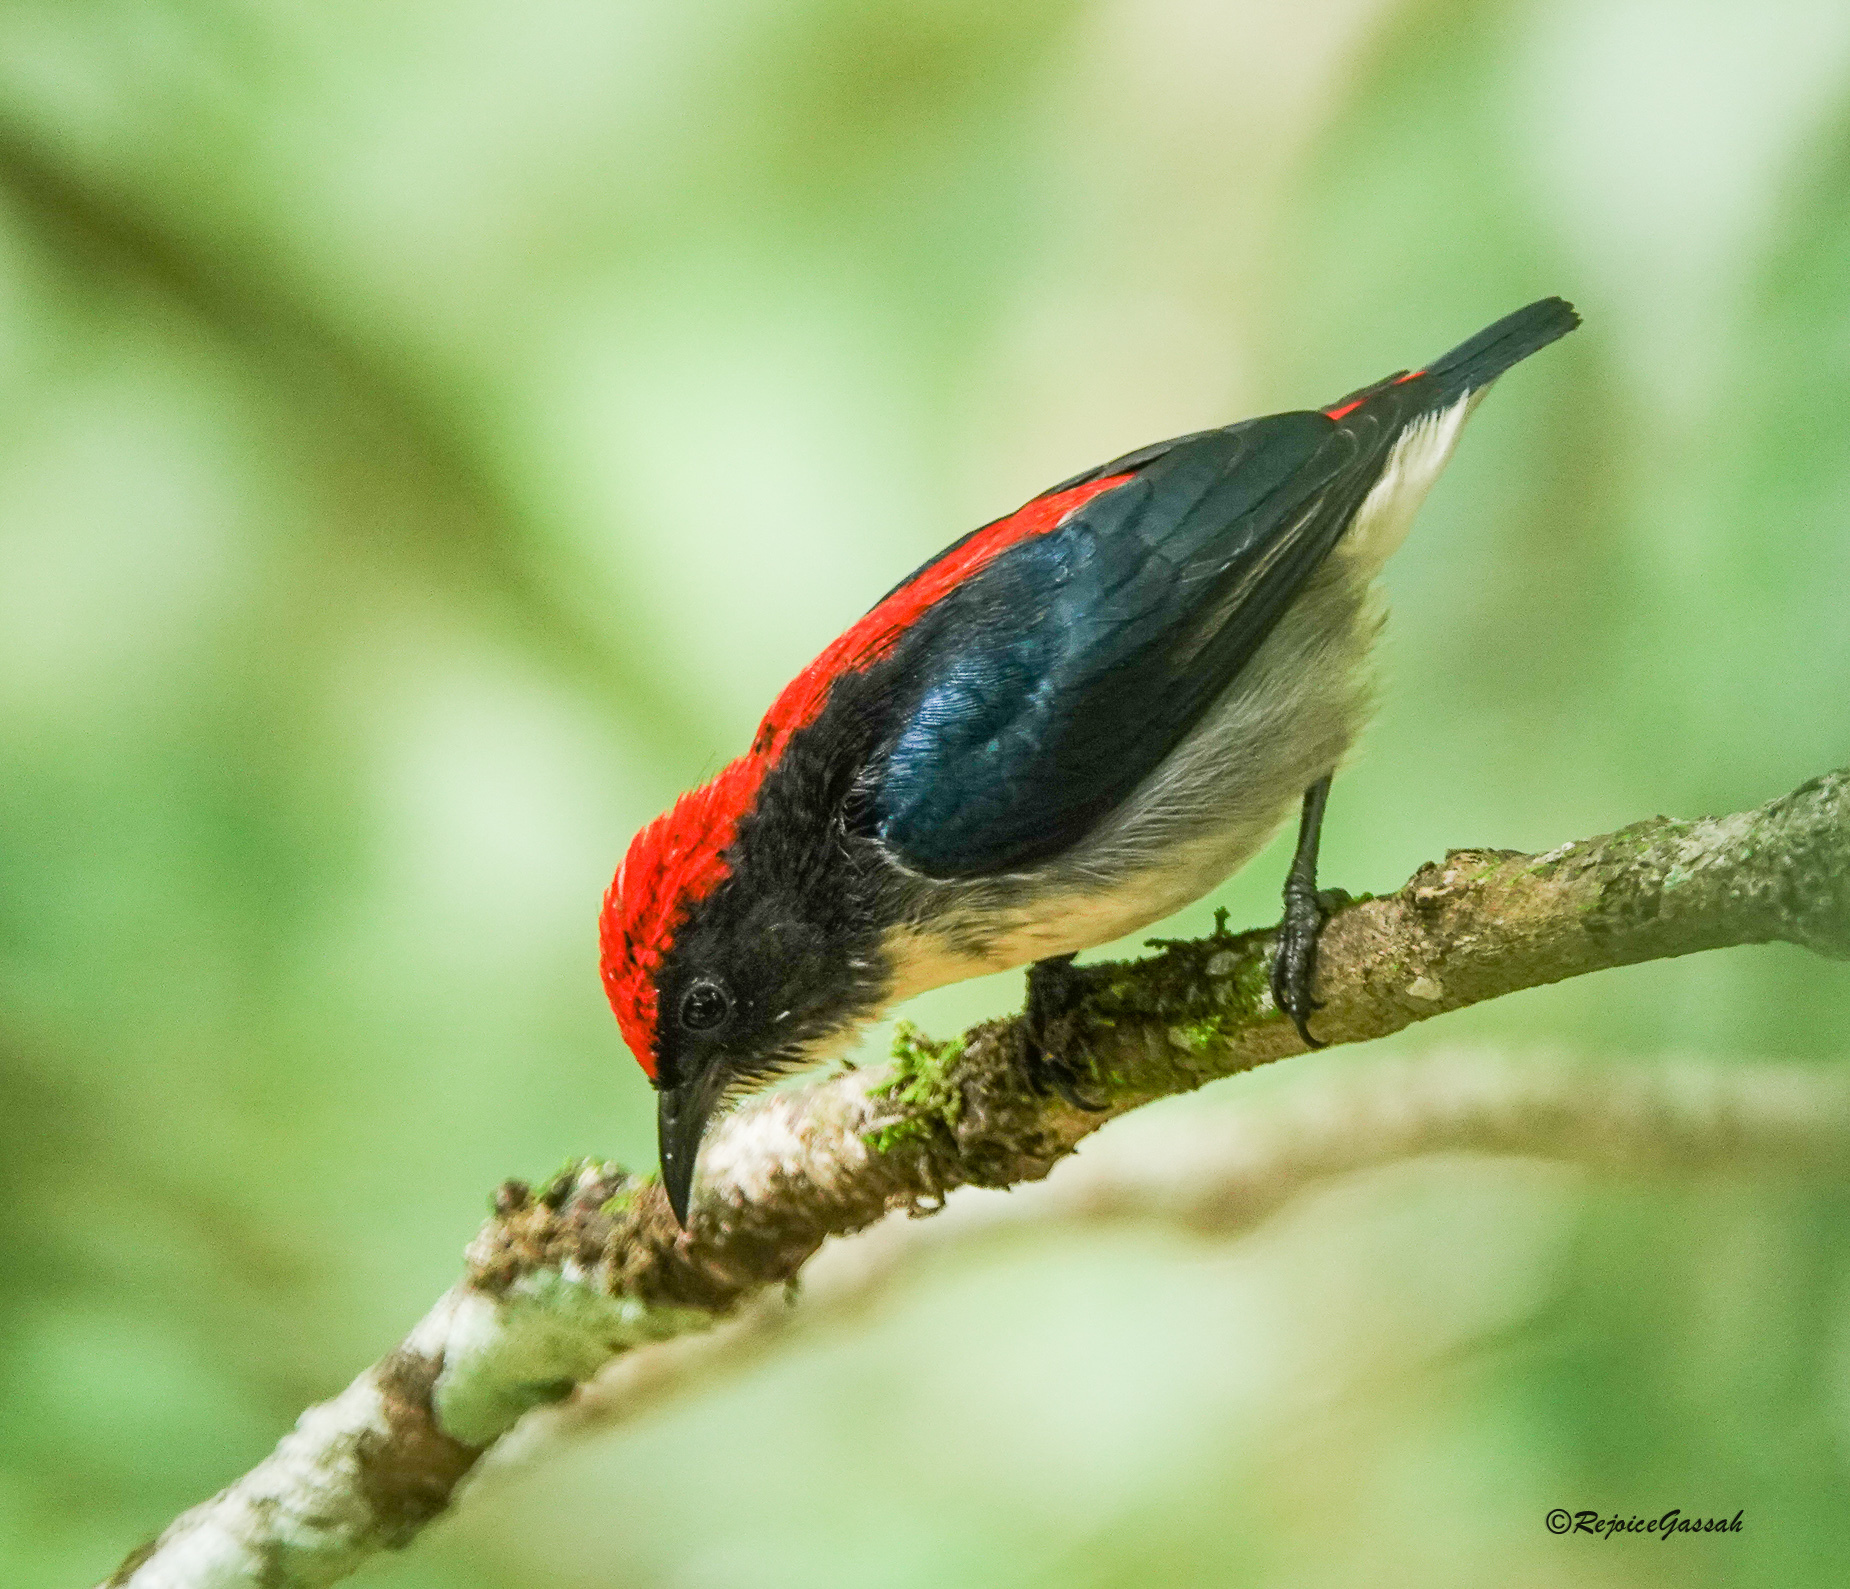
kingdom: Animalia
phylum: Chordata
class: Aves
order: Passeriformes
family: Dicaeidae
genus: Dicaeum
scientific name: Dicaeum cruentatum
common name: Scarlet-backed flowerpecker
